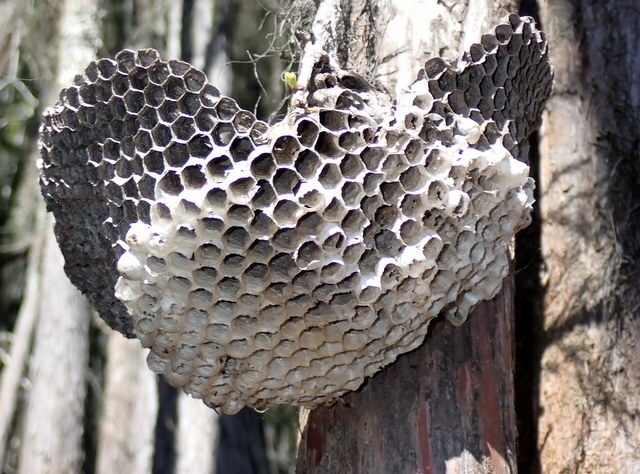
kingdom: Animalia
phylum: Arthropoda
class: Insecta
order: Hymenoptera
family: Vespidae
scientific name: Vespidae
